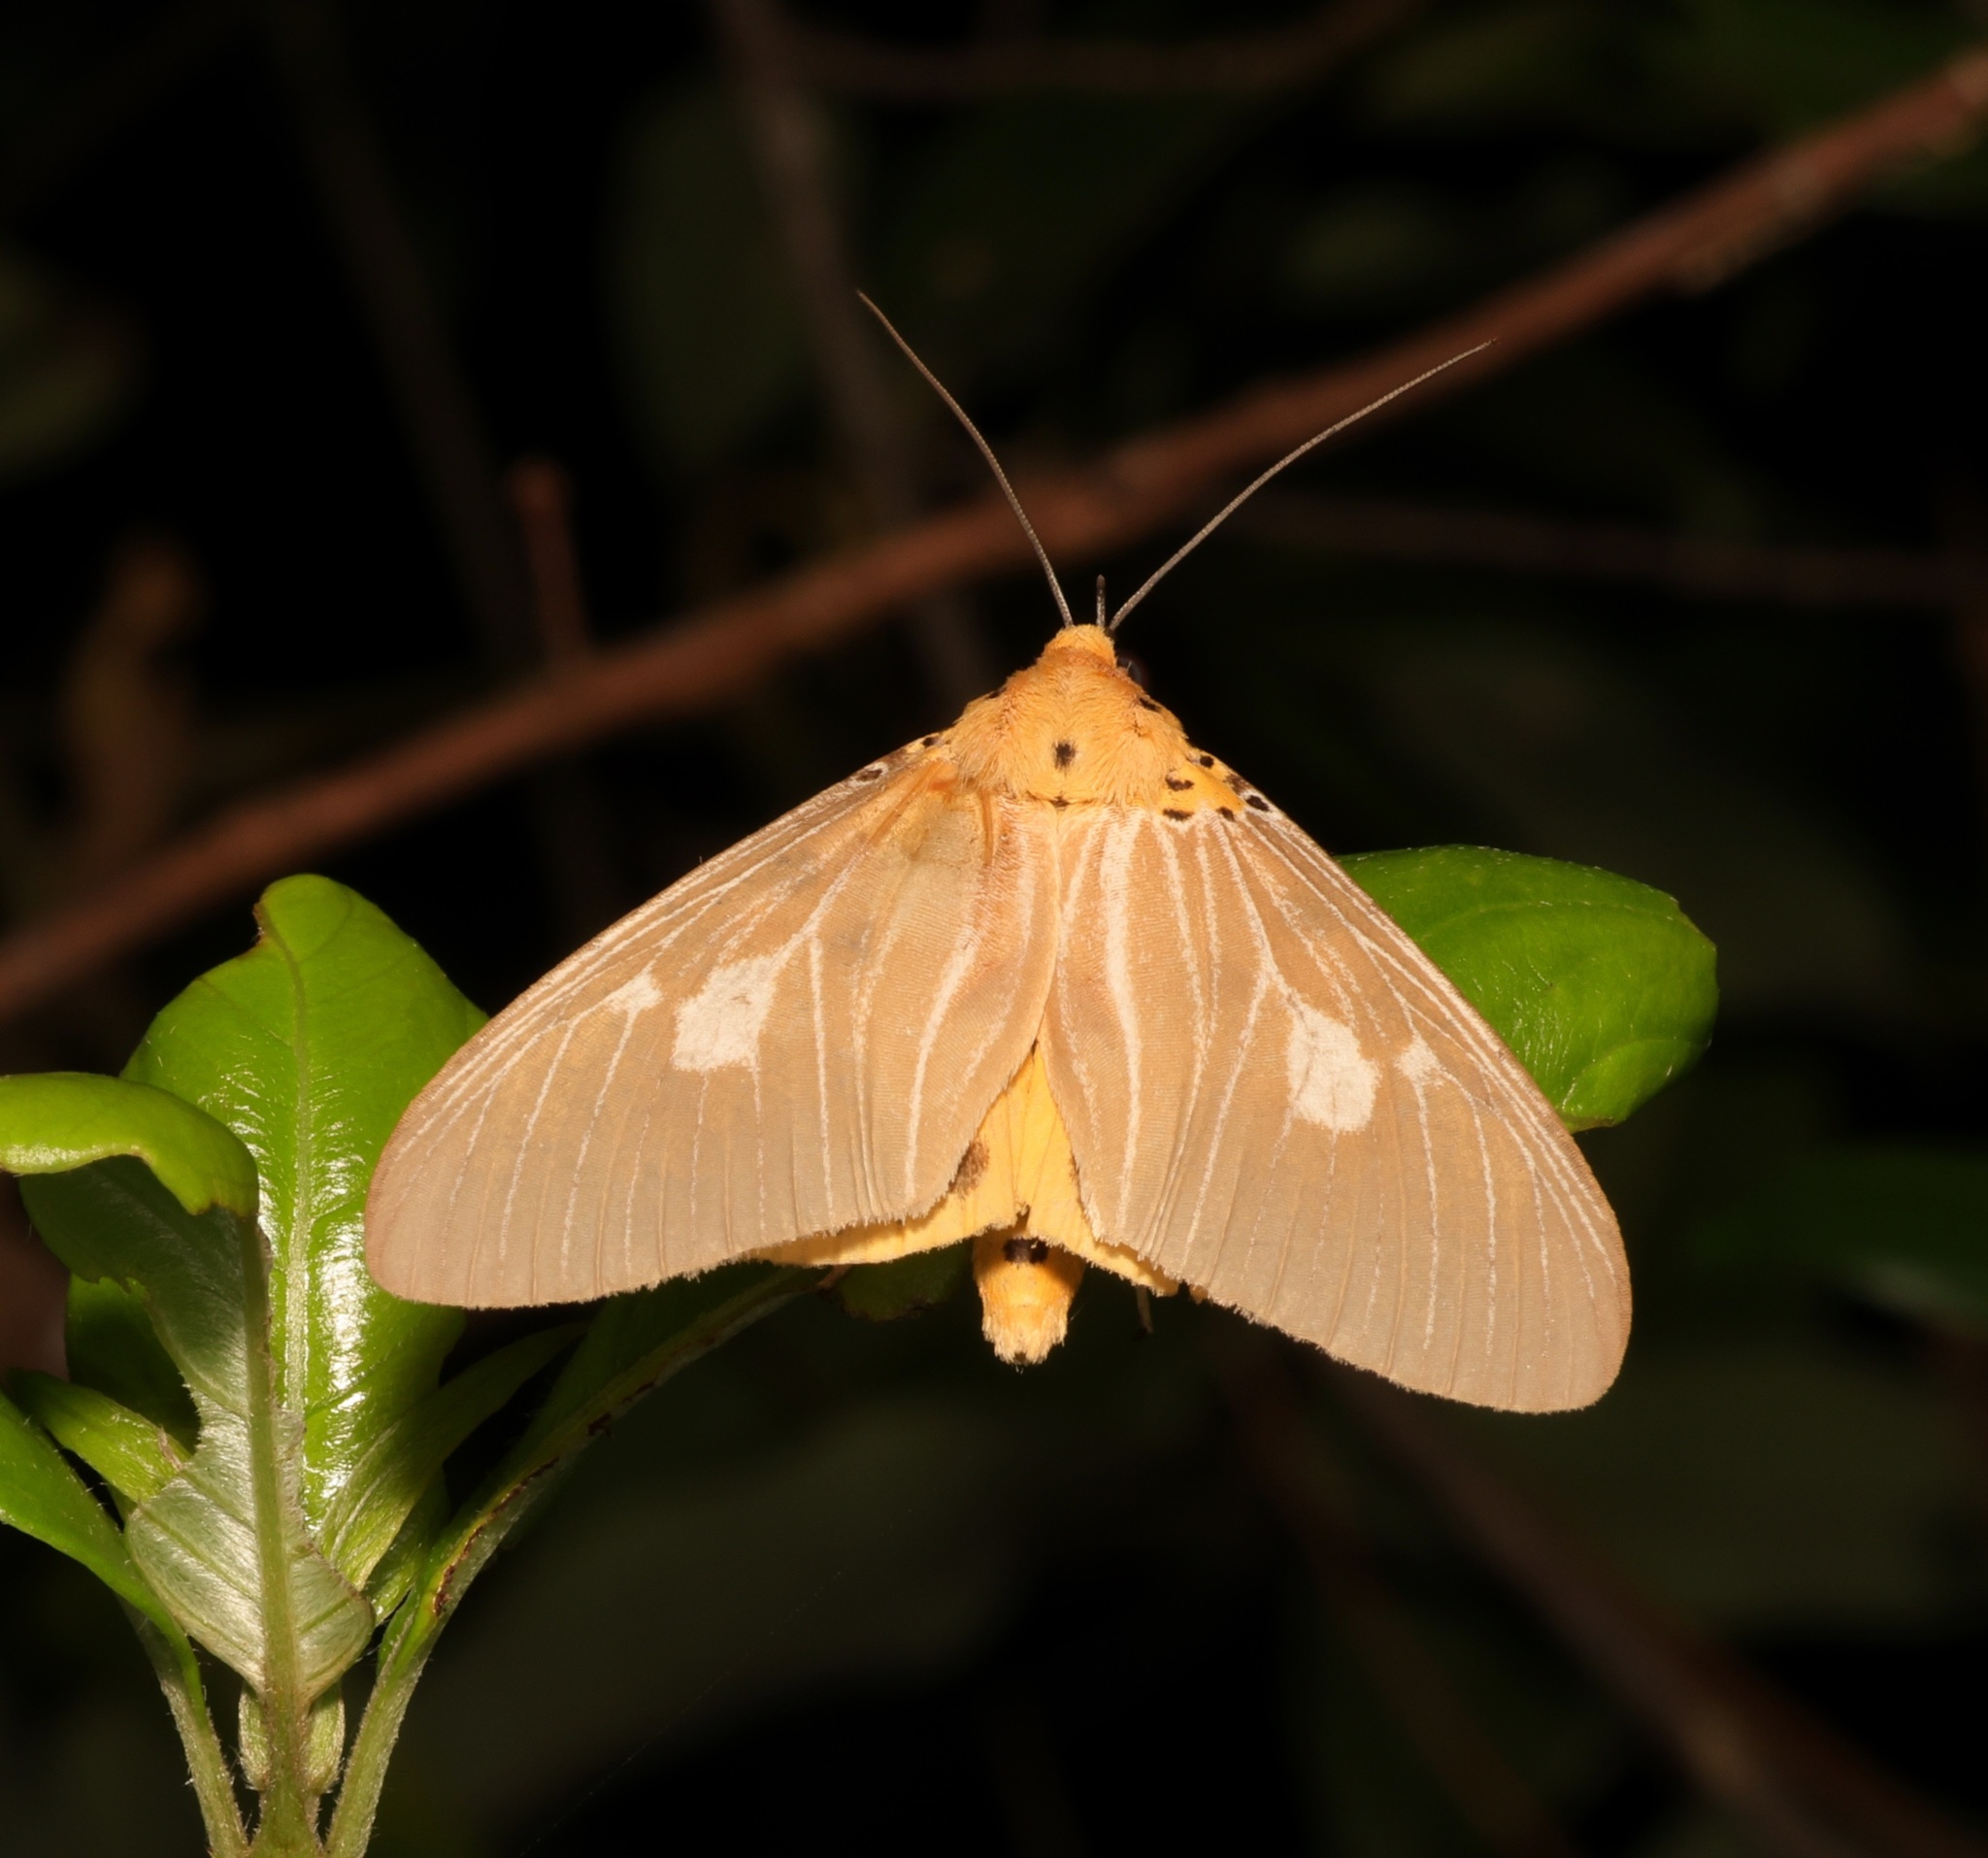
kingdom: Animalia
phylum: Arthropoda
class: Insecta
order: Lepidoptera
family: Erebidae
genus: Asota
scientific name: Asota plaginota
